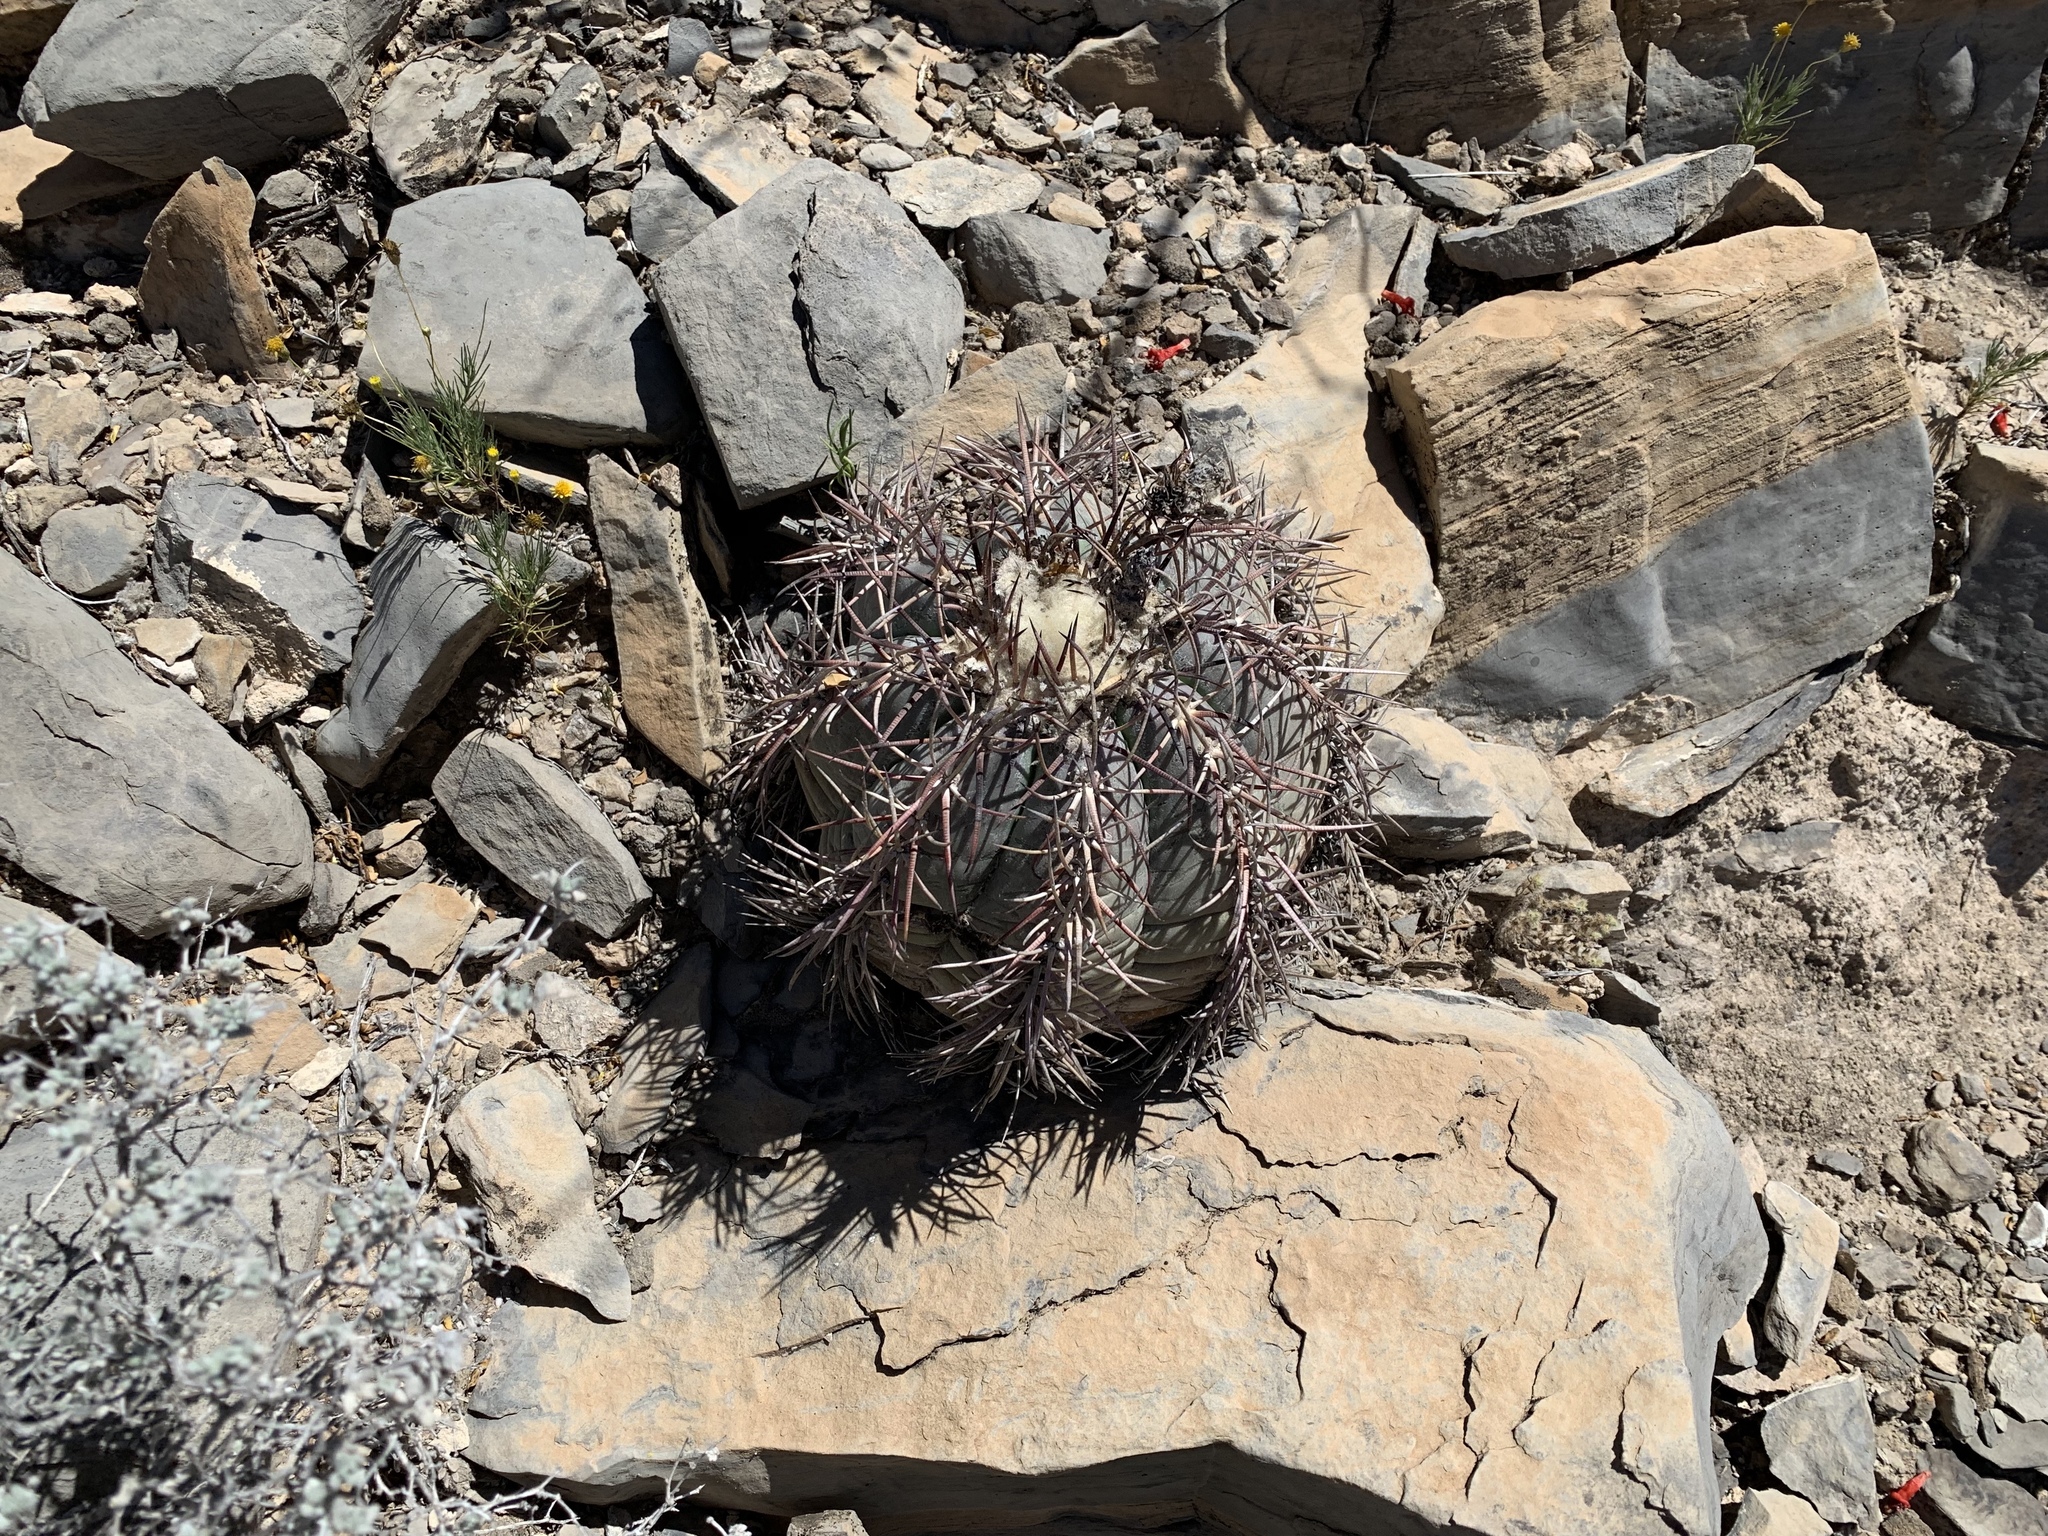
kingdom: Plantae
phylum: Tracheophyta
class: Magnoliopsida
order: Caryophyllales
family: Cactaceae
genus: Echinocactus
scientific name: Echinocactus horizonthalonius
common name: Devilshead
